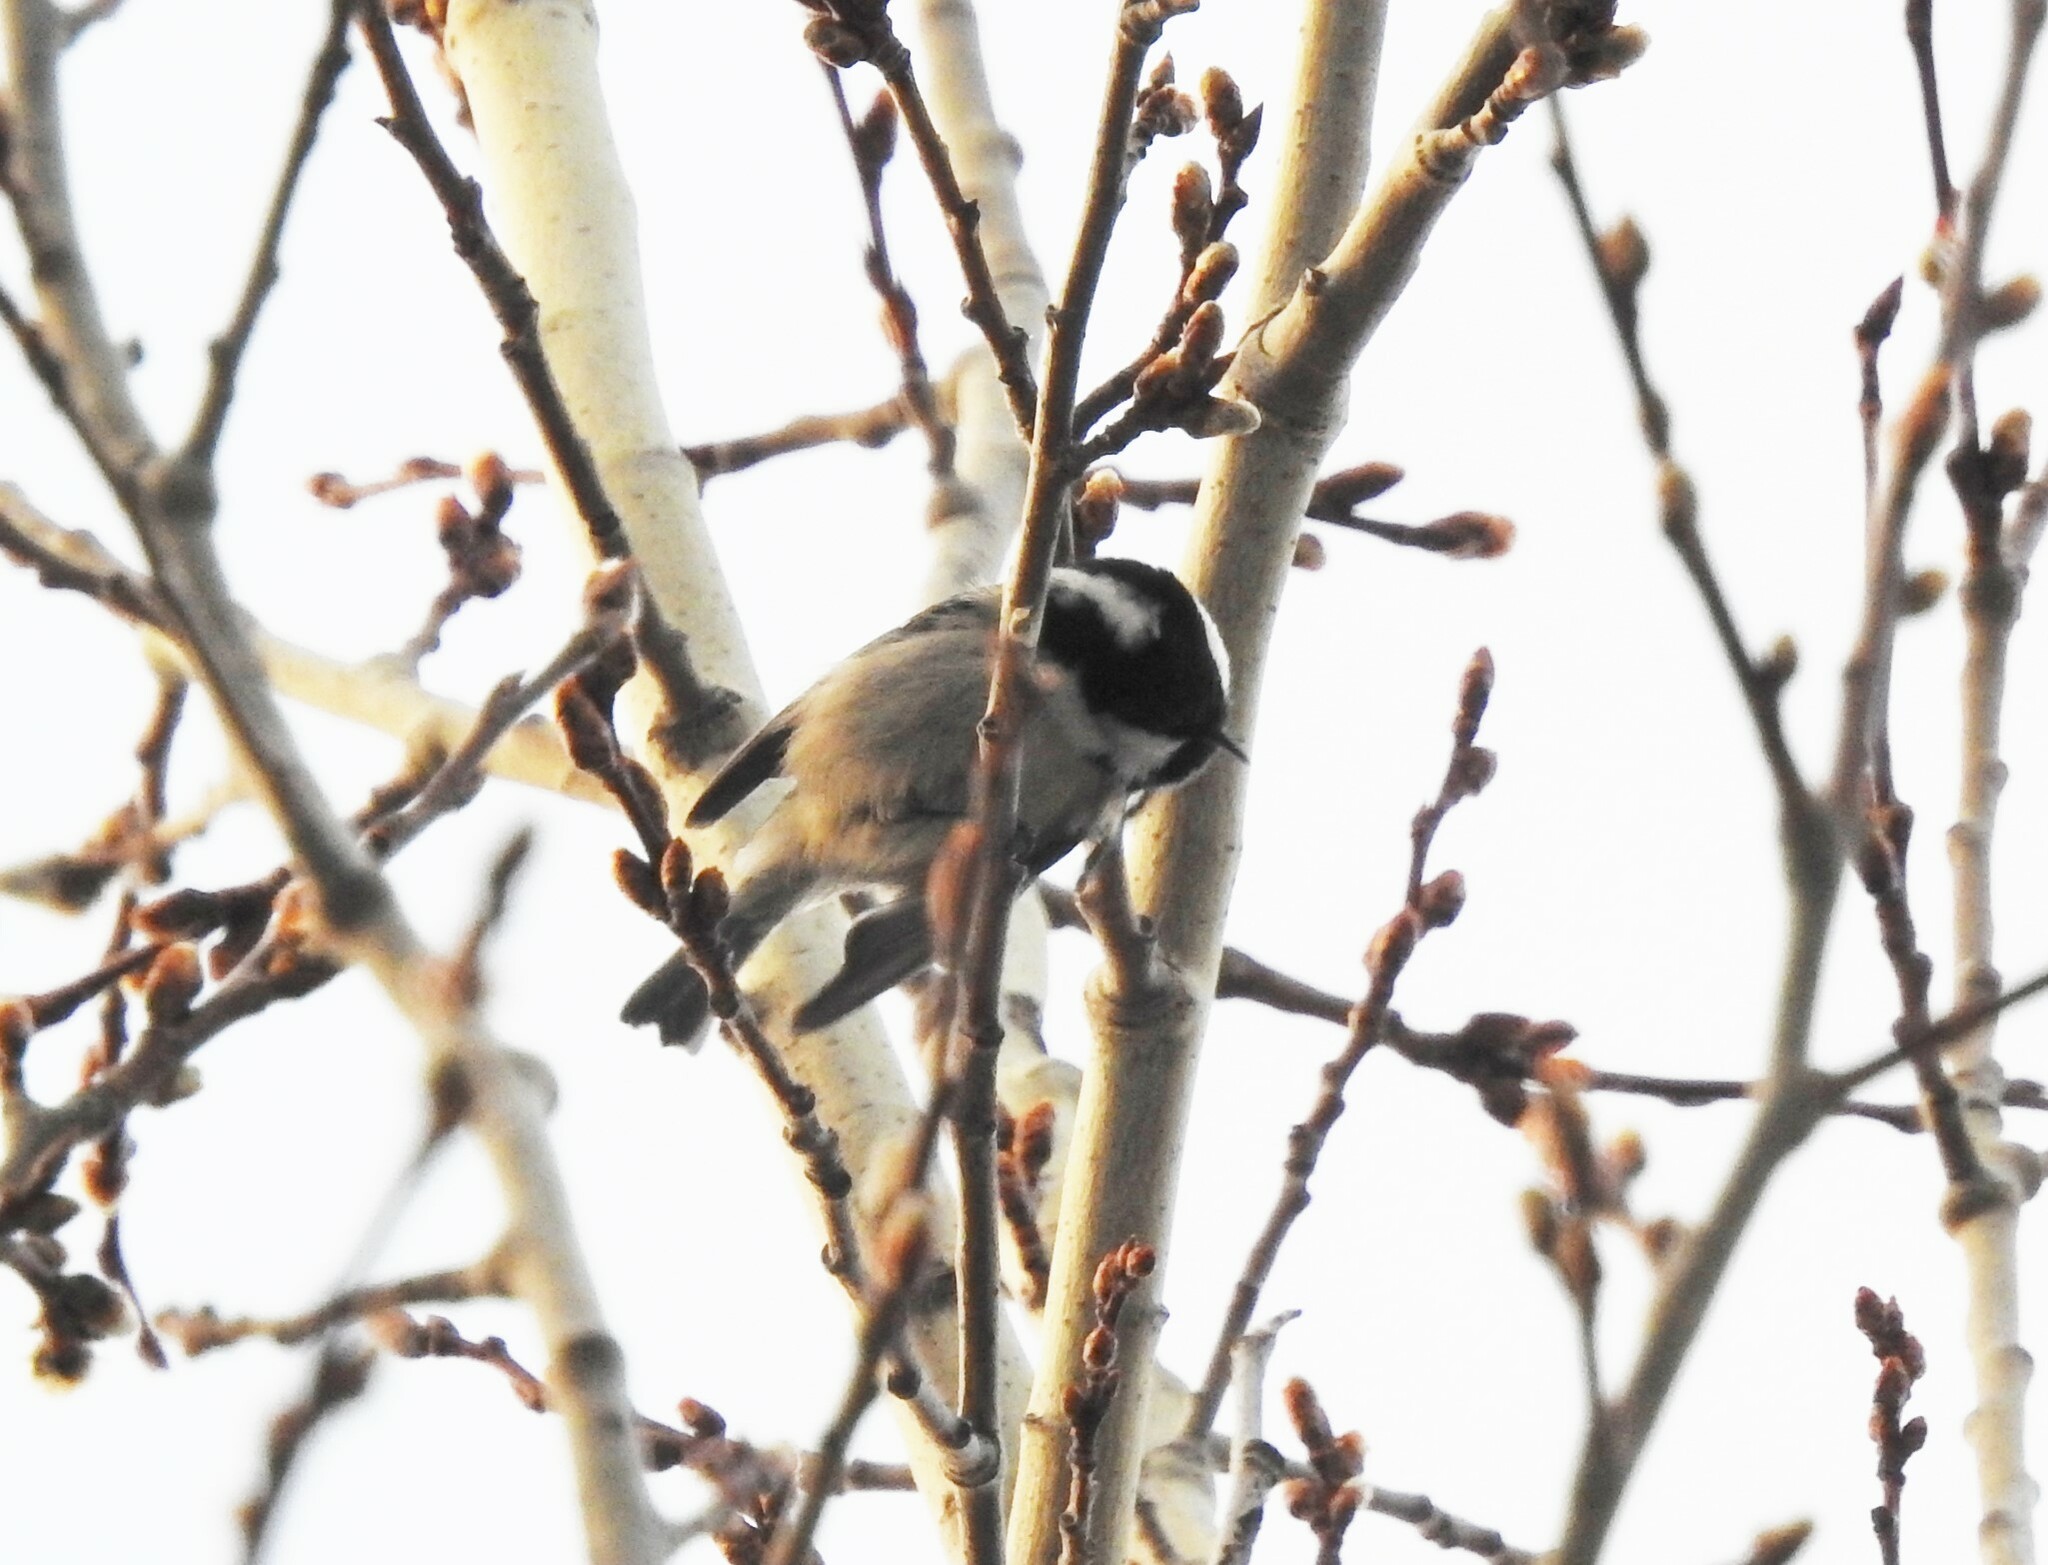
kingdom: Animalia
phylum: Chordata
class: Aves
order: Passeriformes
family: Paridae
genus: Periparus
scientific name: Periparus ater
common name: Coal tit
